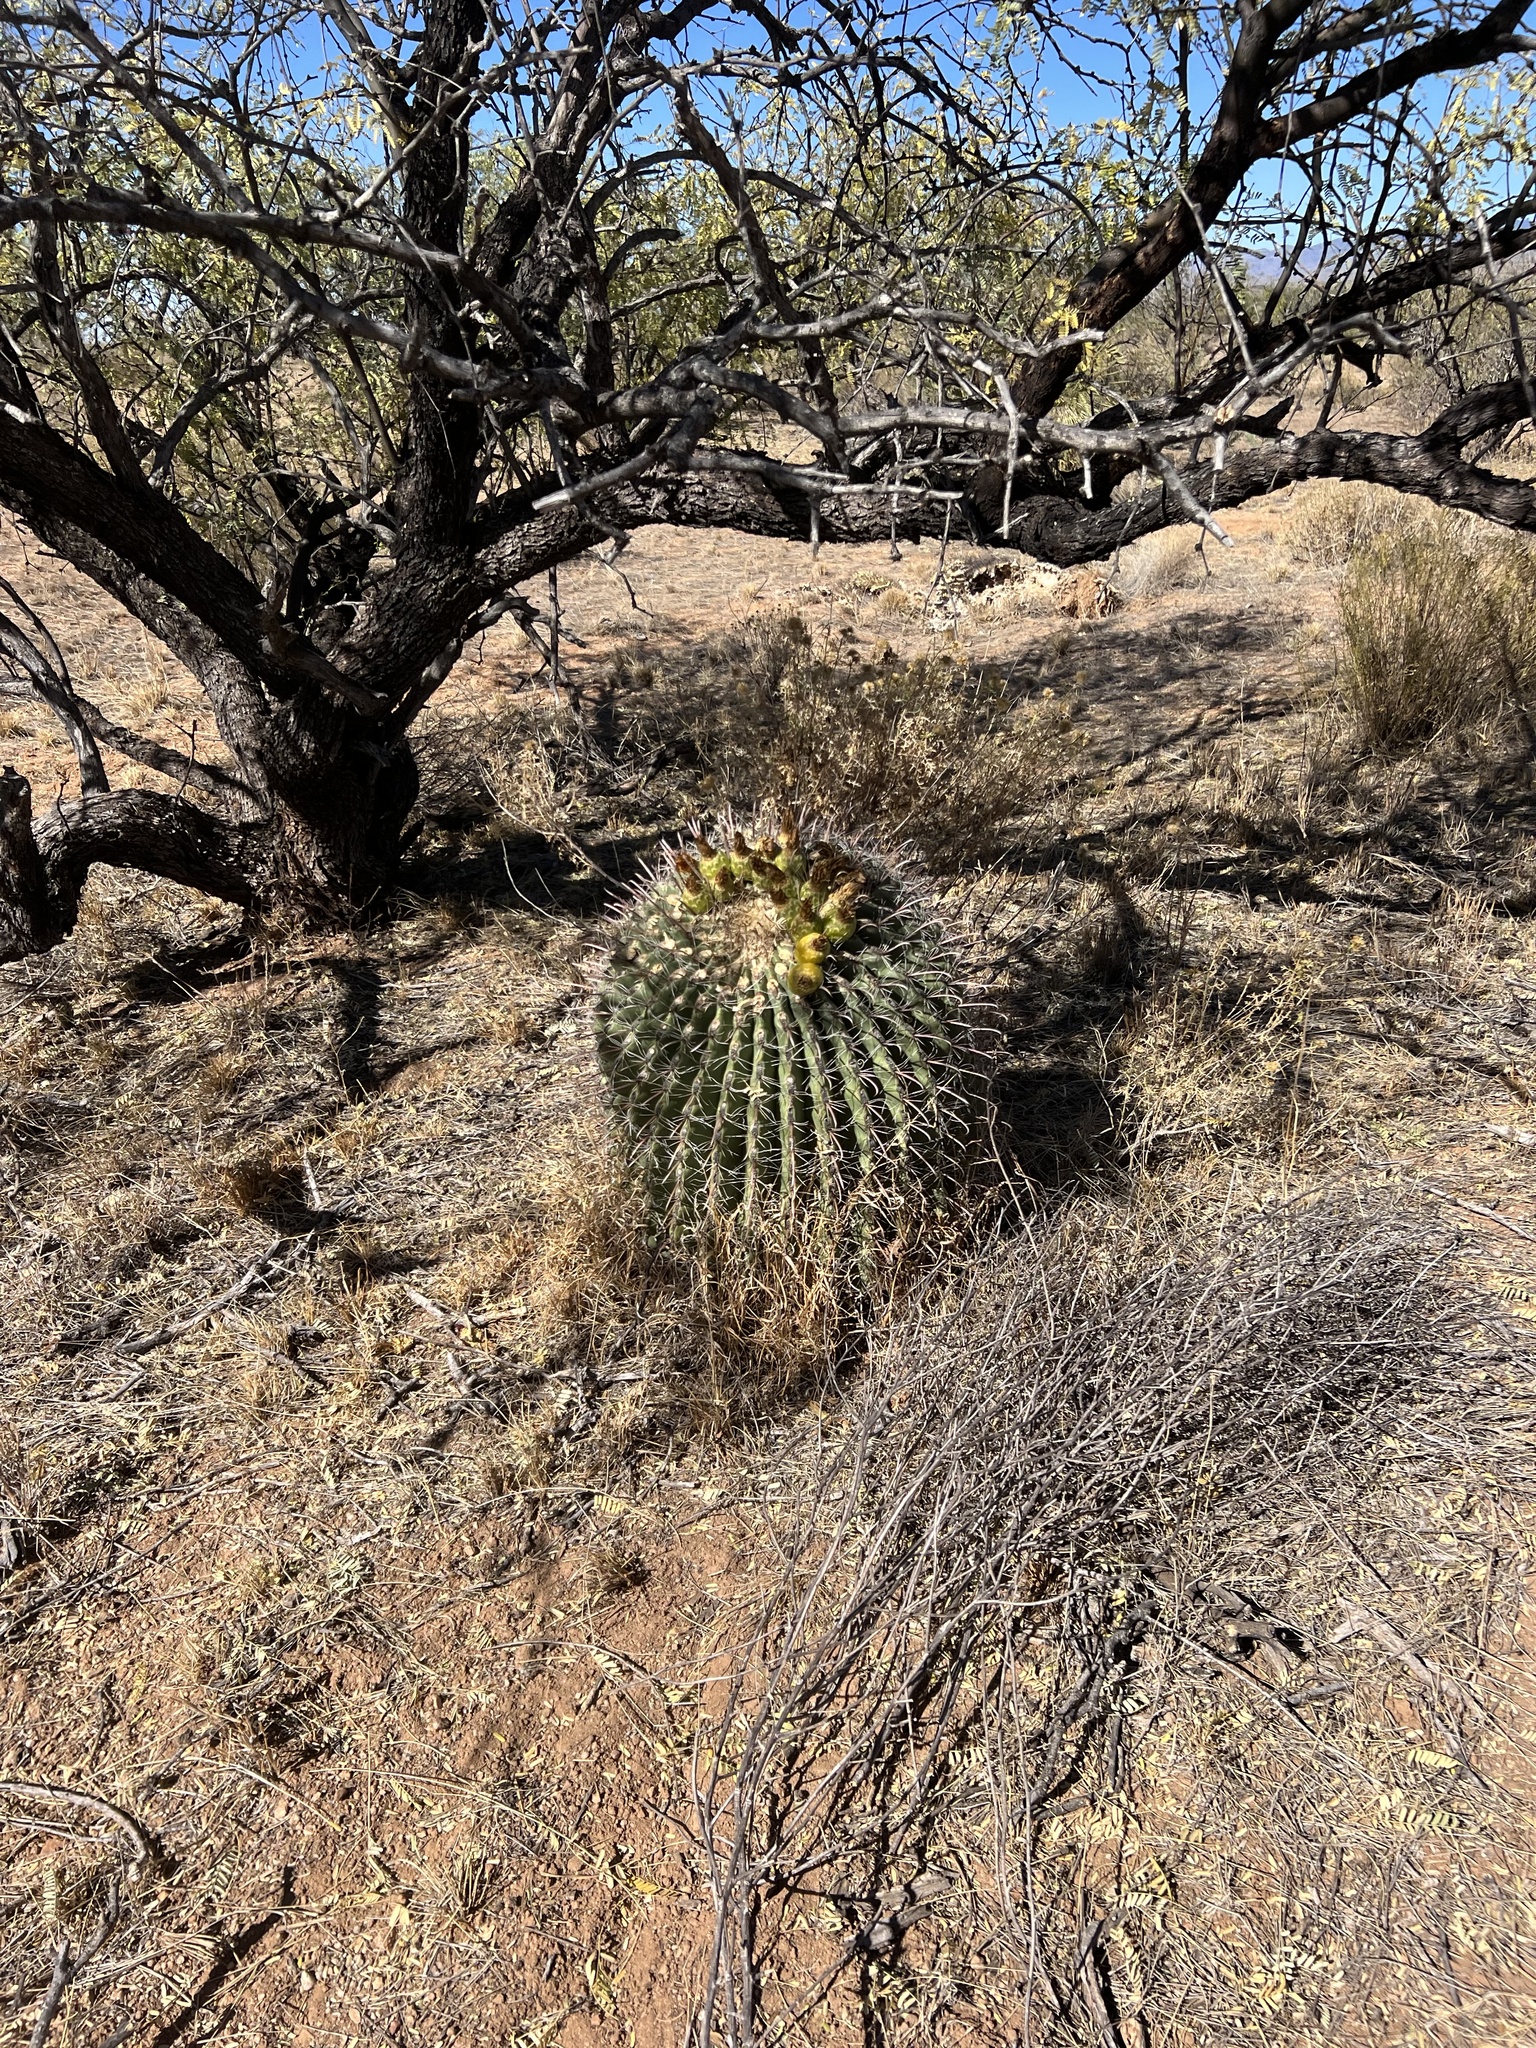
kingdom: Plantae
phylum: Tracheophyta
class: Magnoliopsida
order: Caryophyllales
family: Cactaceae
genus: Ferocactus
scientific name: Ferocactus wislizeni
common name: Candy barrel cactus
